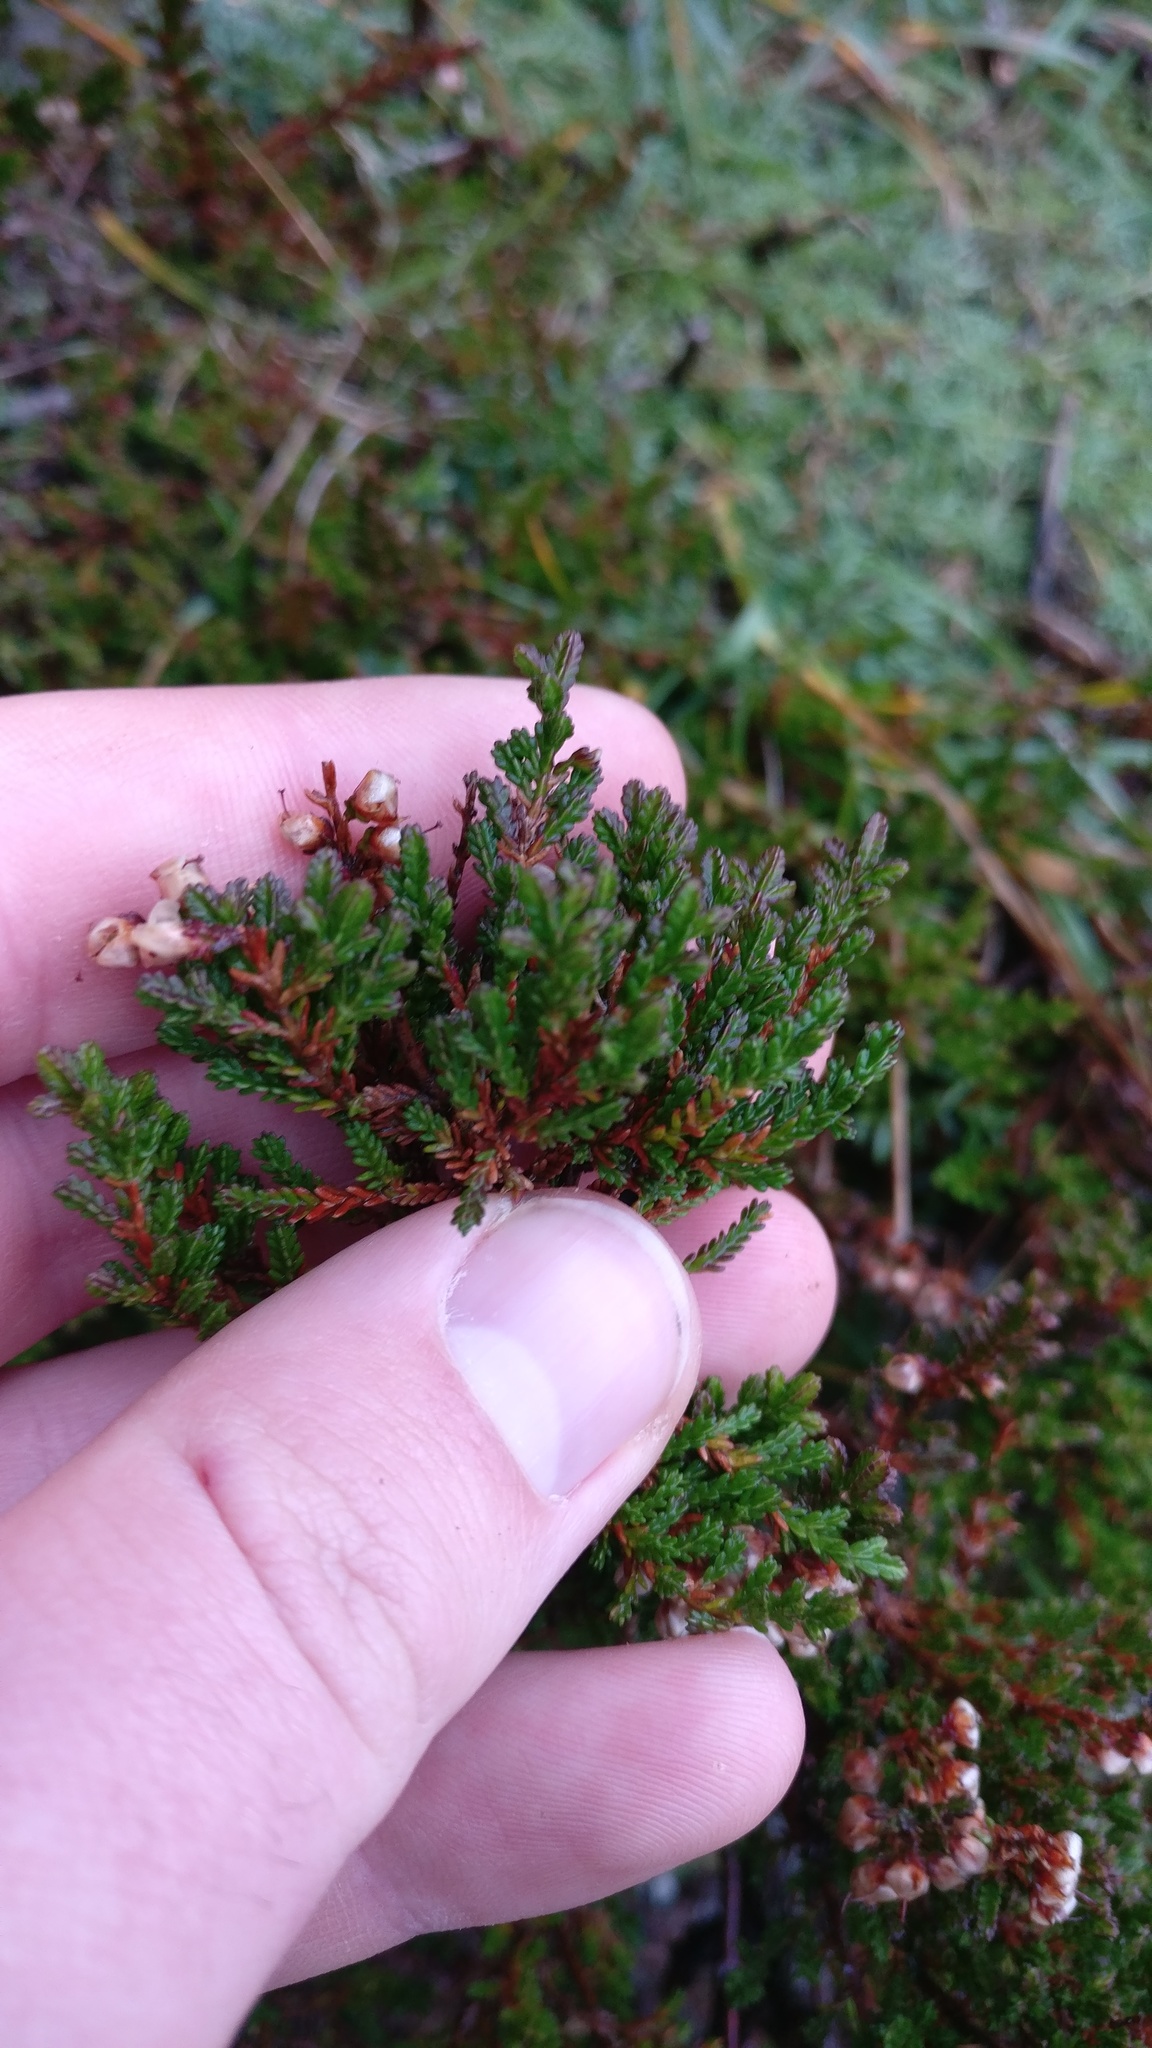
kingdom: Plantae
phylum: Tracheophyta
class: Magnoliopsida
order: Ericales
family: Ericaceae
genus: Calluna
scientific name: Calluna vulgaris
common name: Heather
